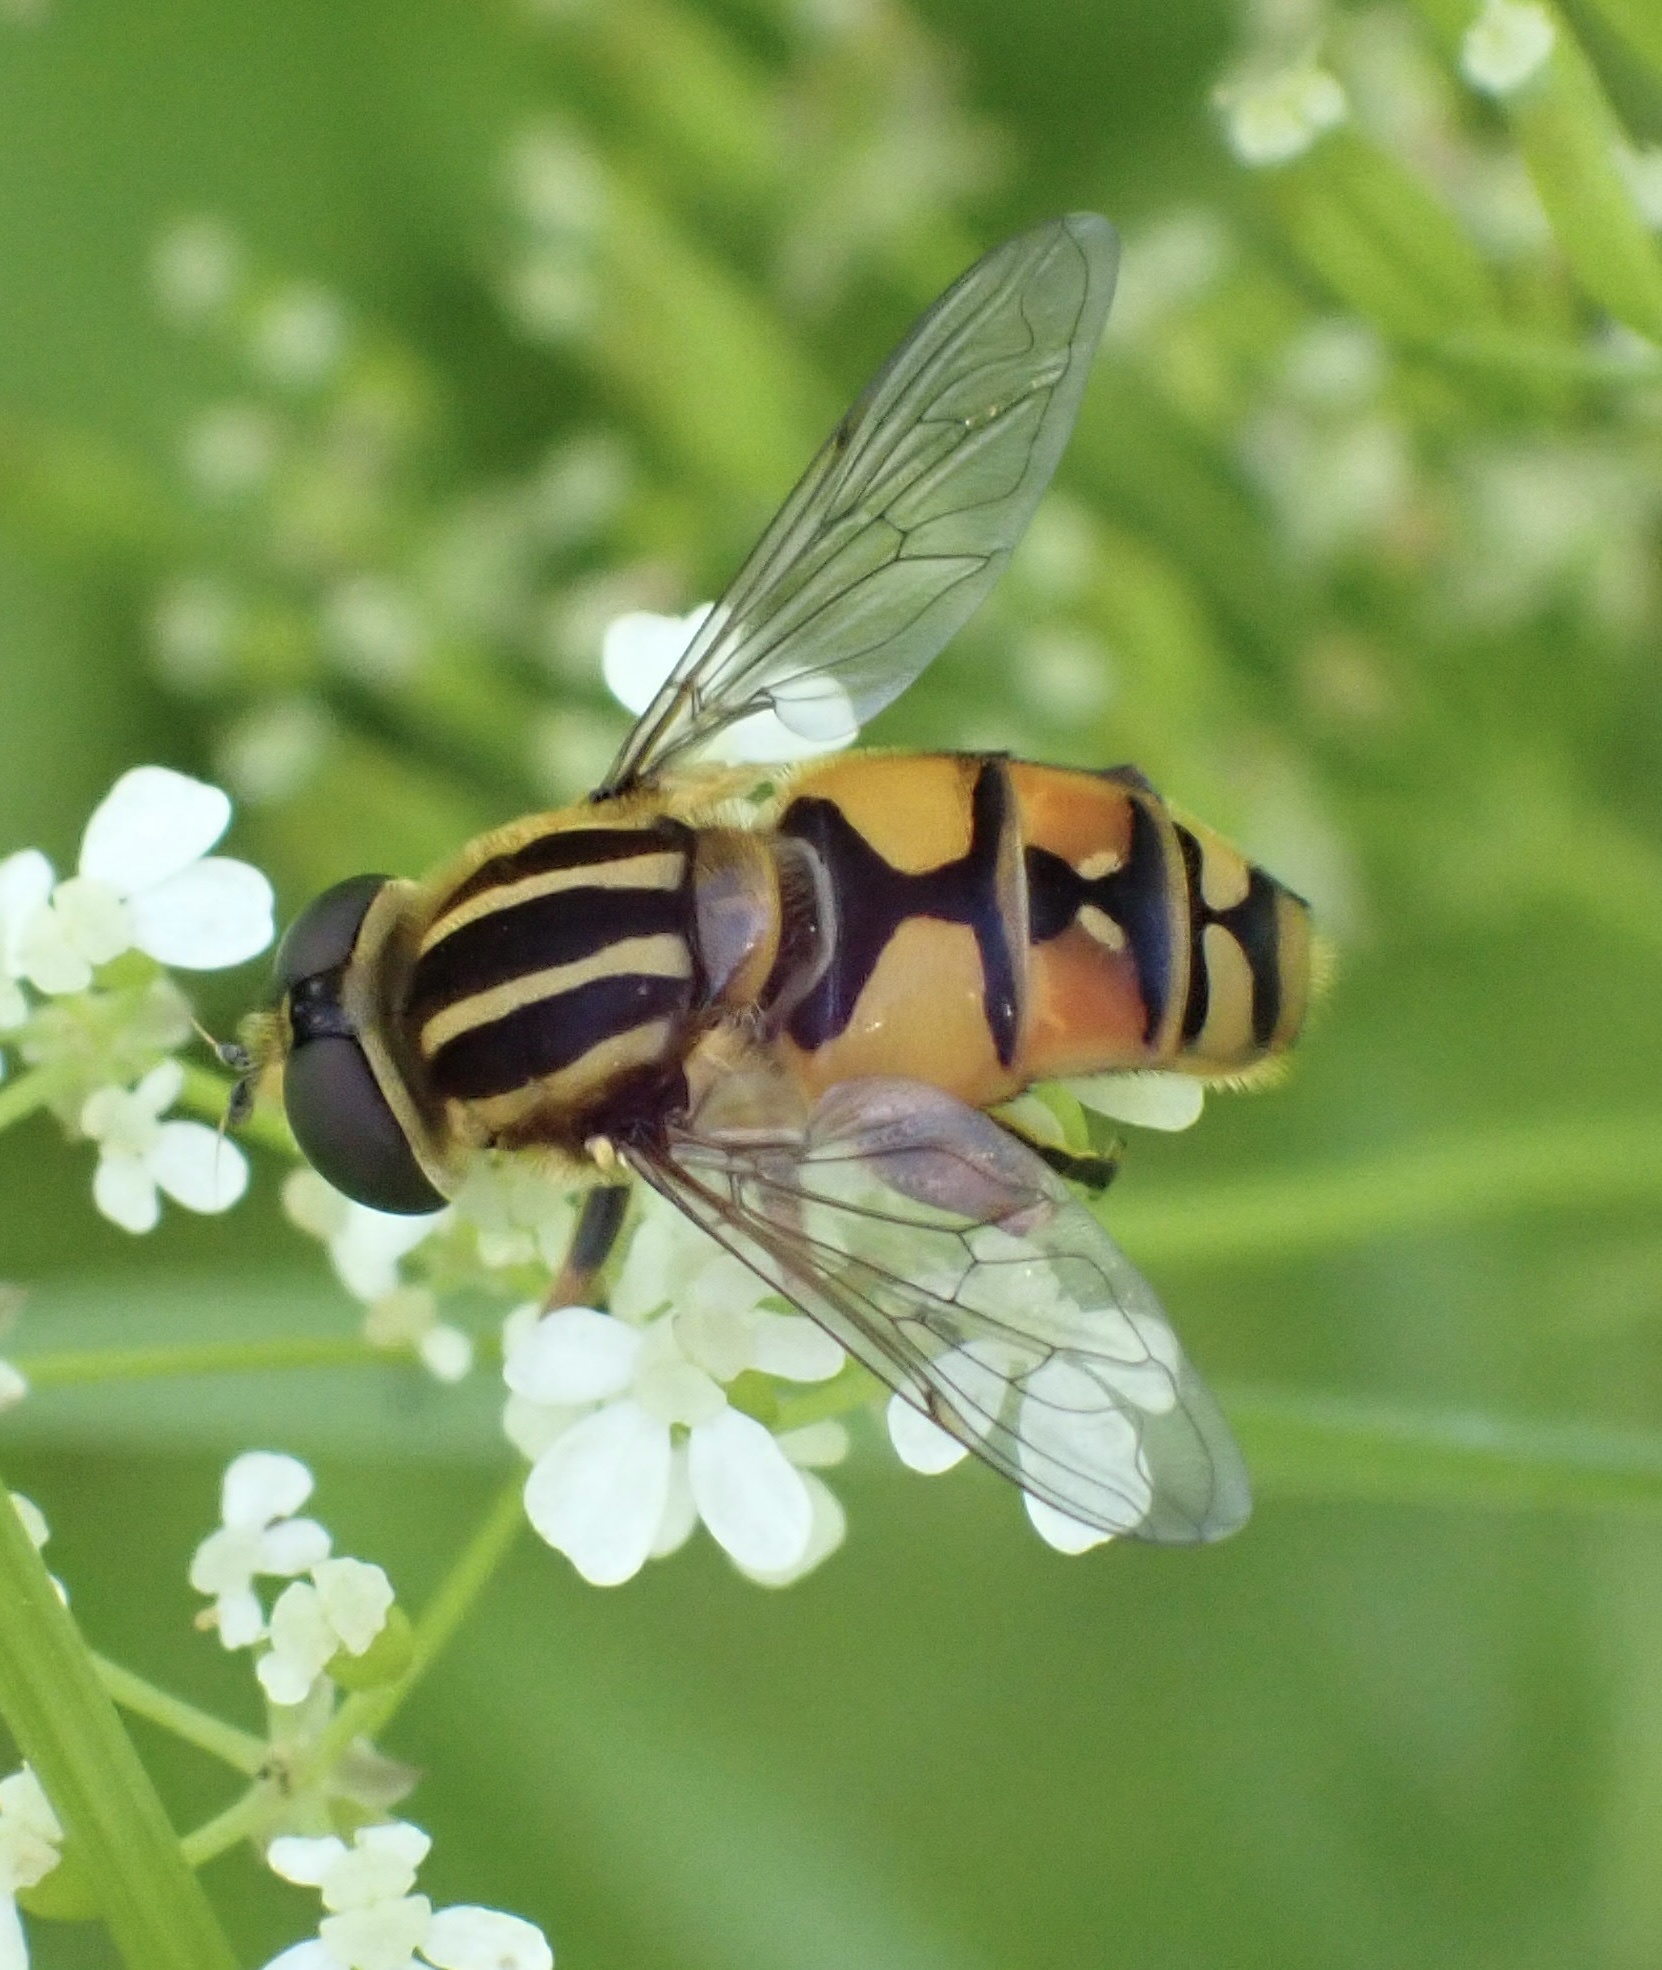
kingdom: Animalia
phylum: Arthropoda
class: Insecta
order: Diptera
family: Syrphidae
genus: Helophilus
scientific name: Helophilus pendulus
